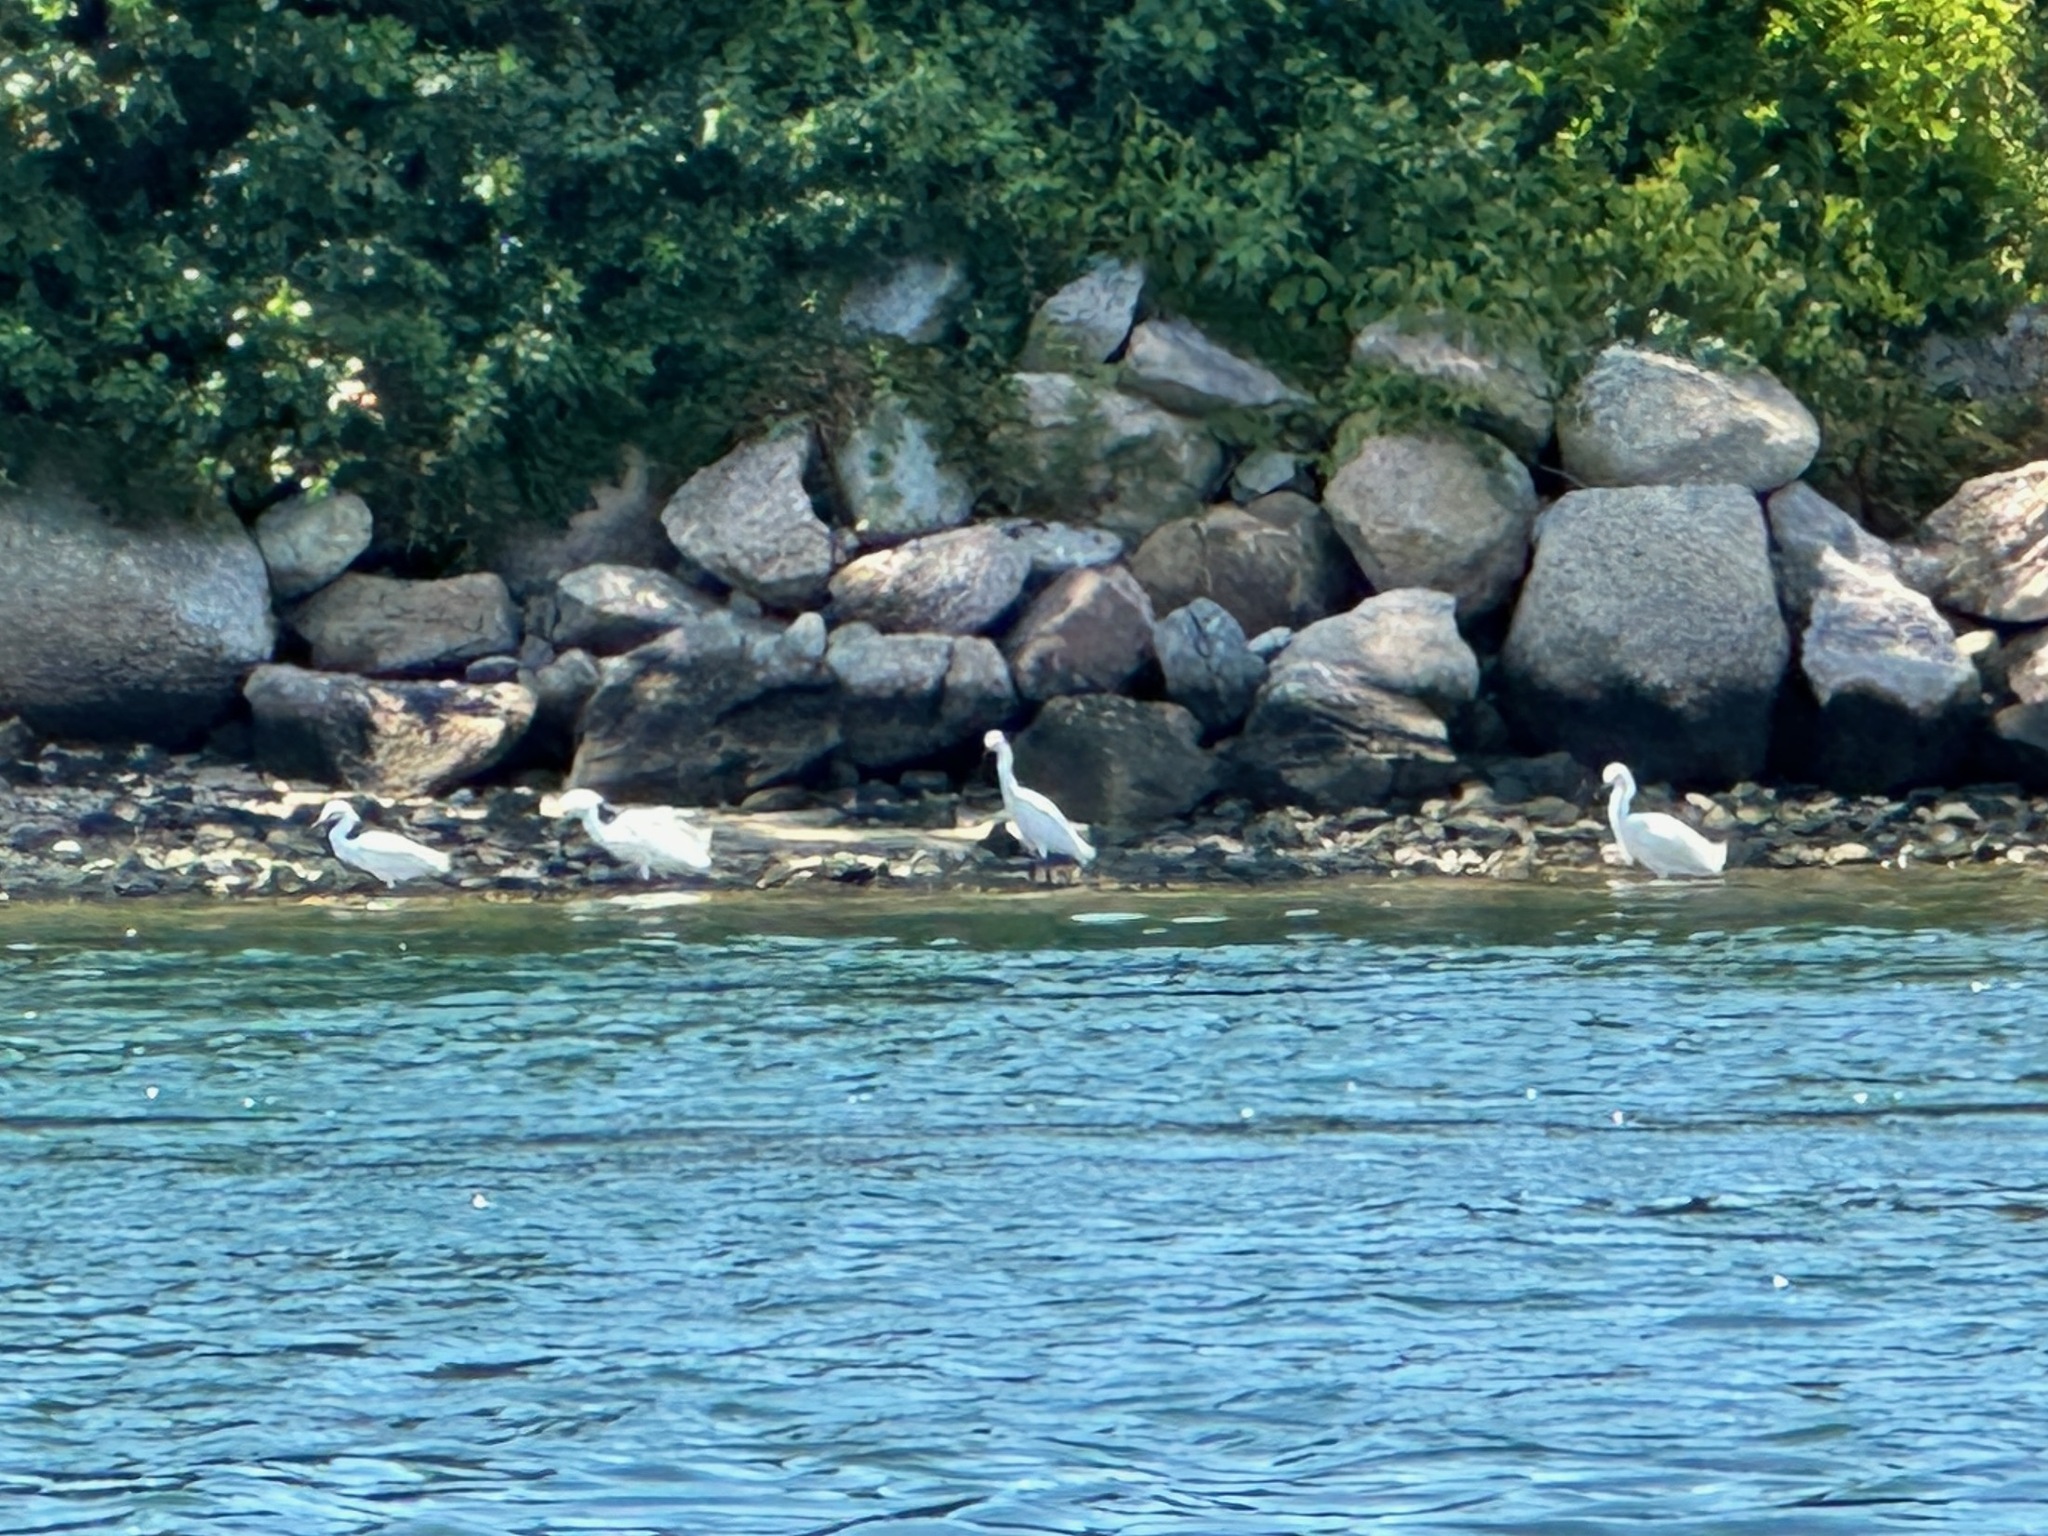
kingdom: Animalia
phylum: Chordata
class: Aves
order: Pelecaniformes
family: Ardeidae
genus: Egretta
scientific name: Egretta thula
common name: Snowy egret
